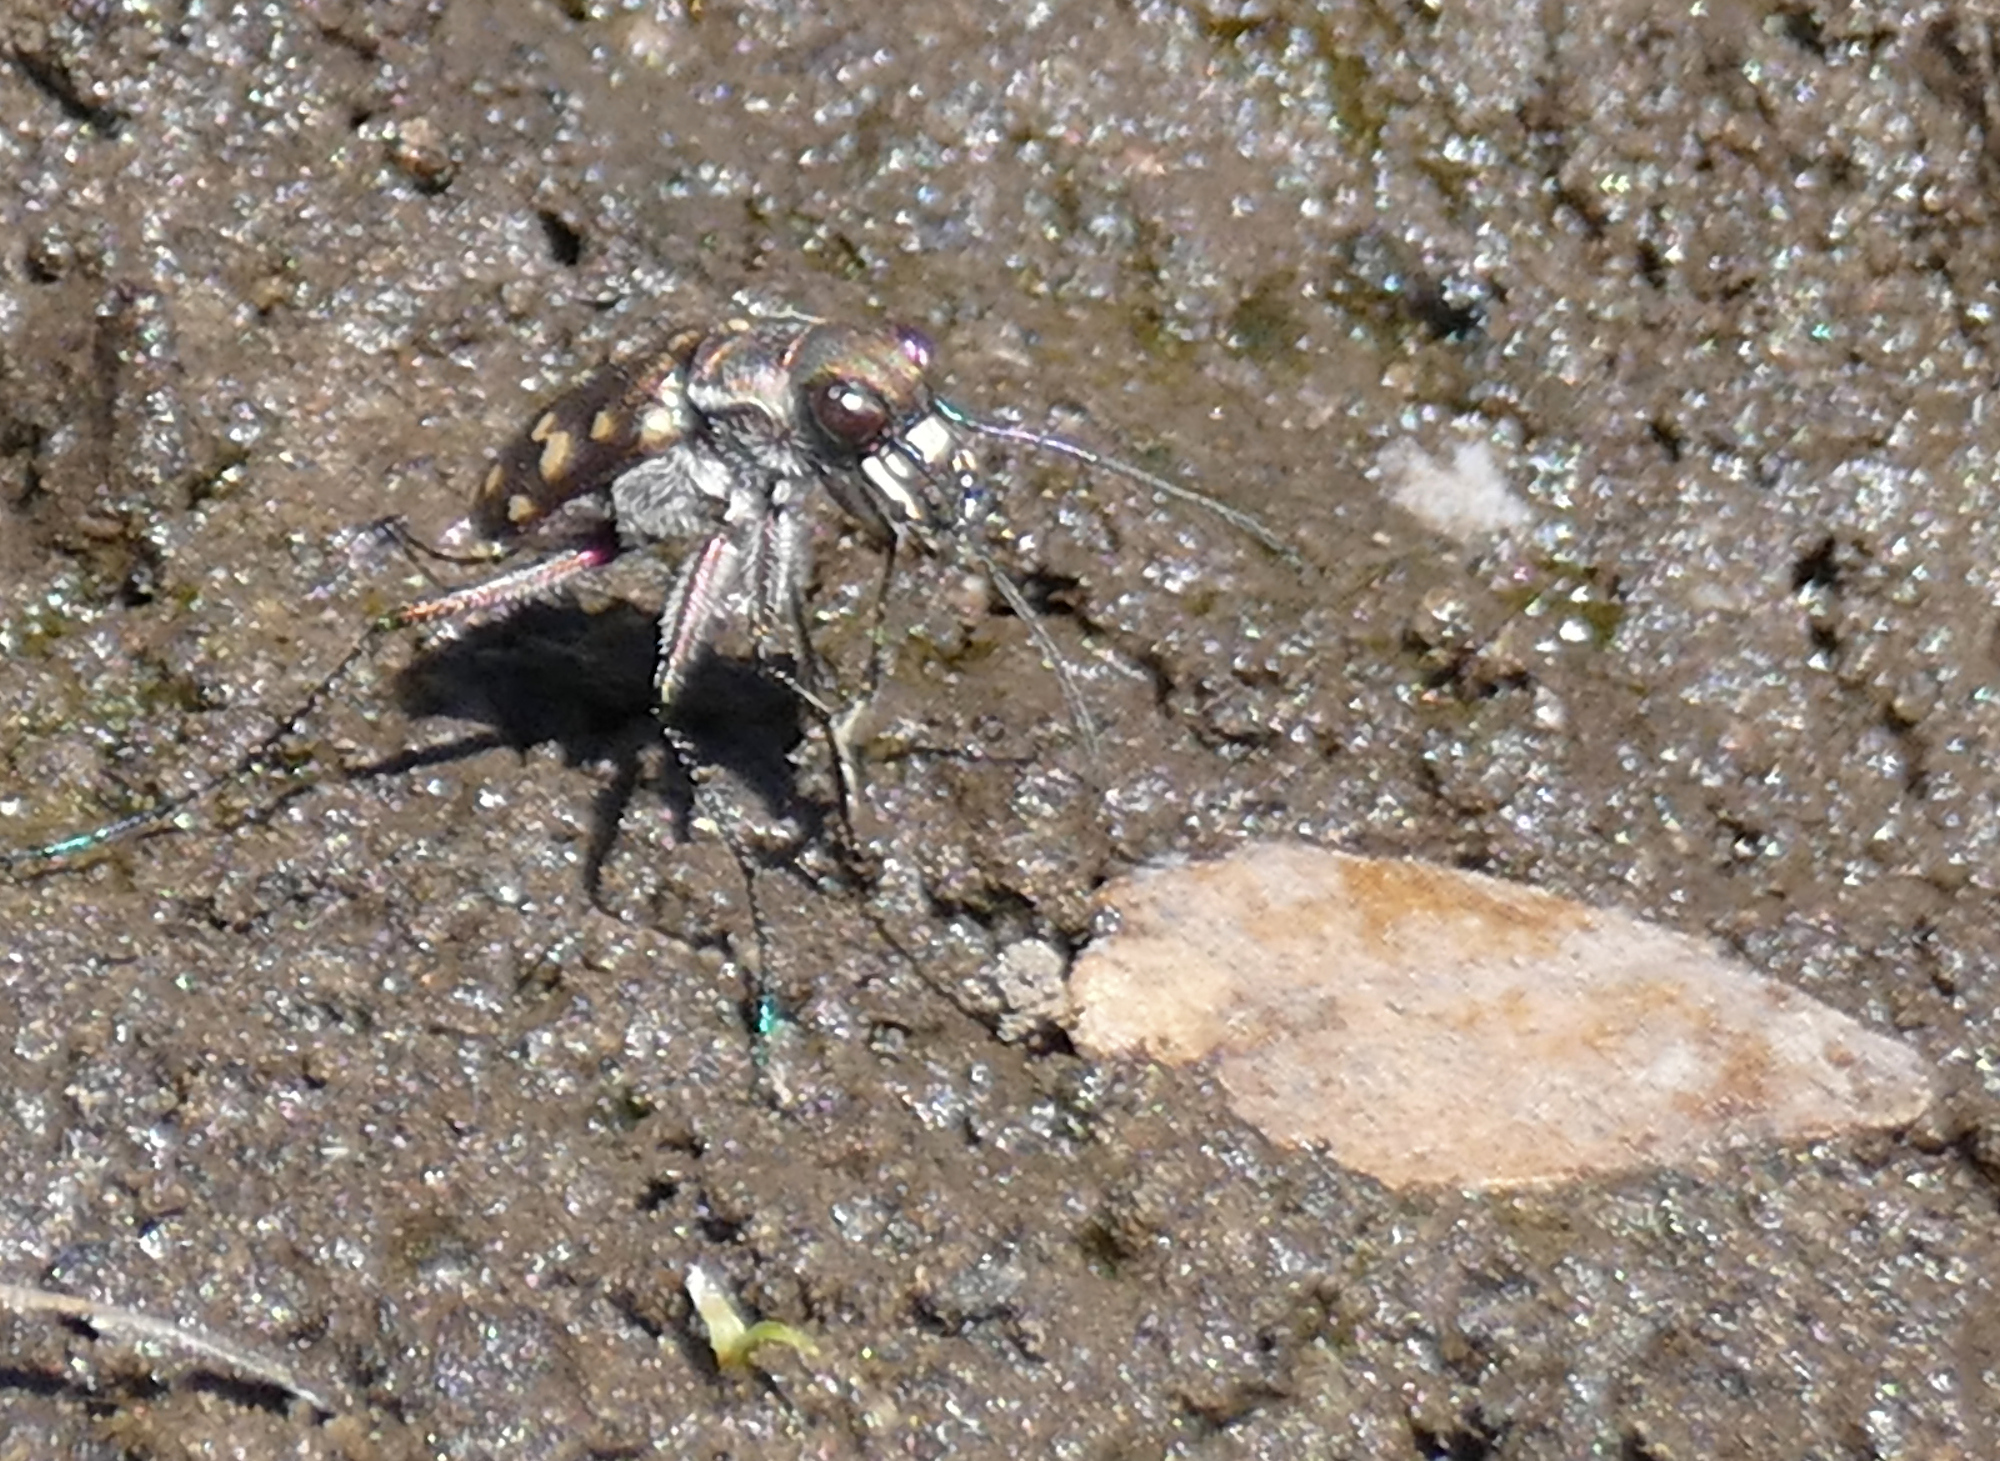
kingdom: Animalia
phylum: Arthropoda
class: Insecta
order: Coleoptera
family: Carabidae
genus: Cicindela
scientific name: Cicindela sedecimpunctata
